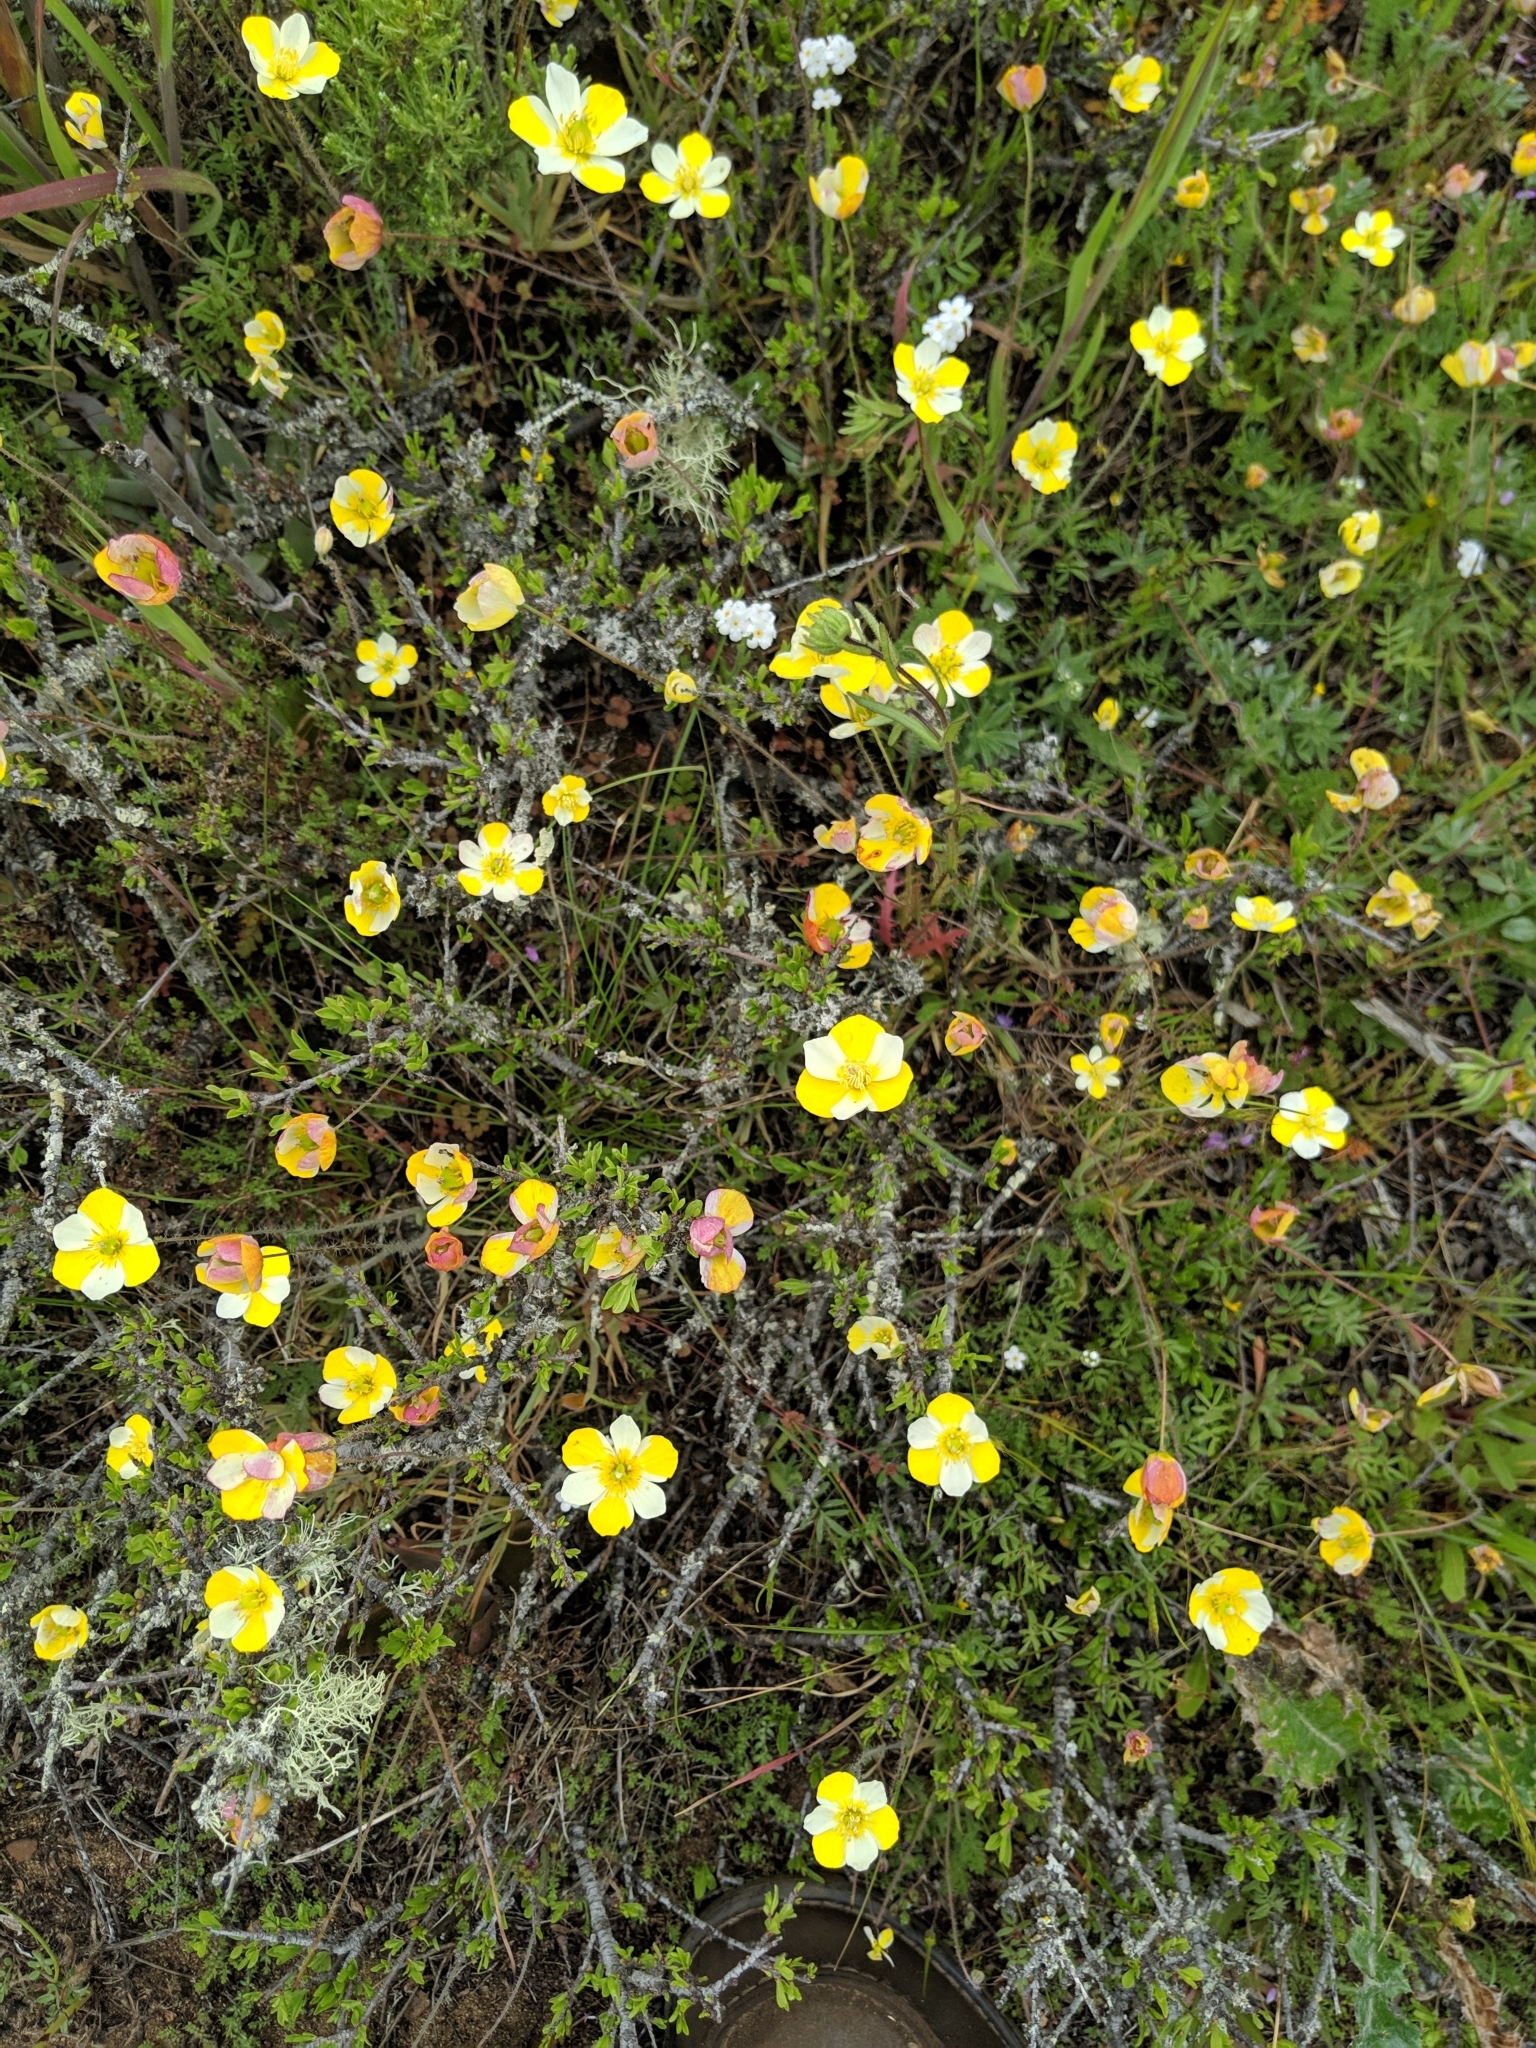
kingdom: Plantae
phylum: Tracheophyta
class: Magnoliopsida
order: Ranunculales
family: Papaveraceae
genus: Platystigma
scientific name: Platystigma lineare
